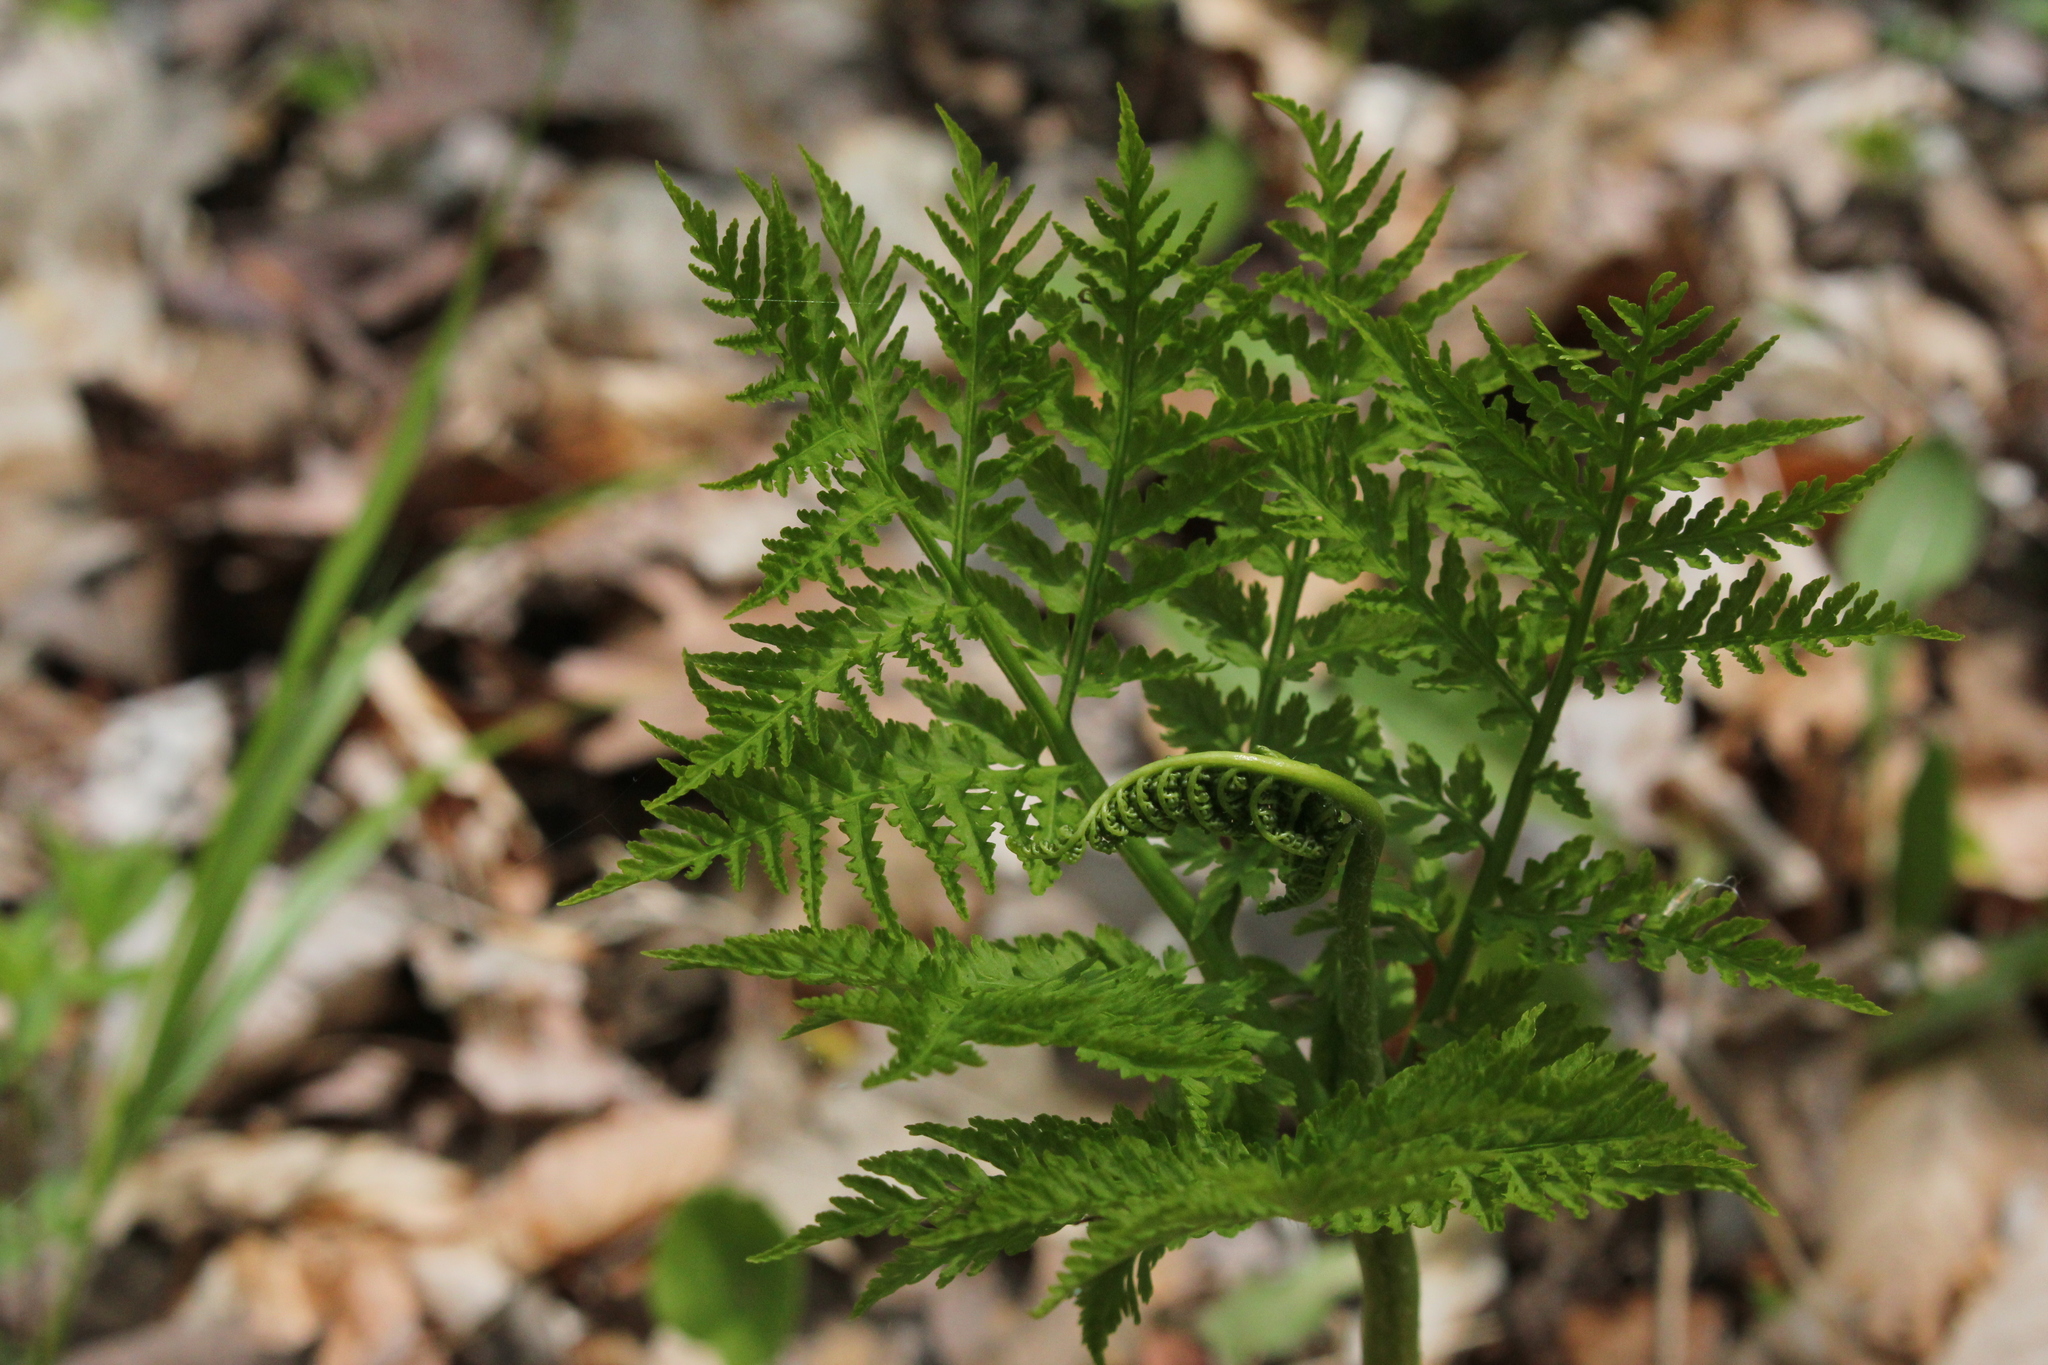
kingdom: Plantae
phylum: Tracheophyta
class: Polypodiopsida
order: Ophioglossales
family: Ophioglossaceae
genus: Botrypus
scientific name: Botrypus virginianus
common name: Common grapefern
